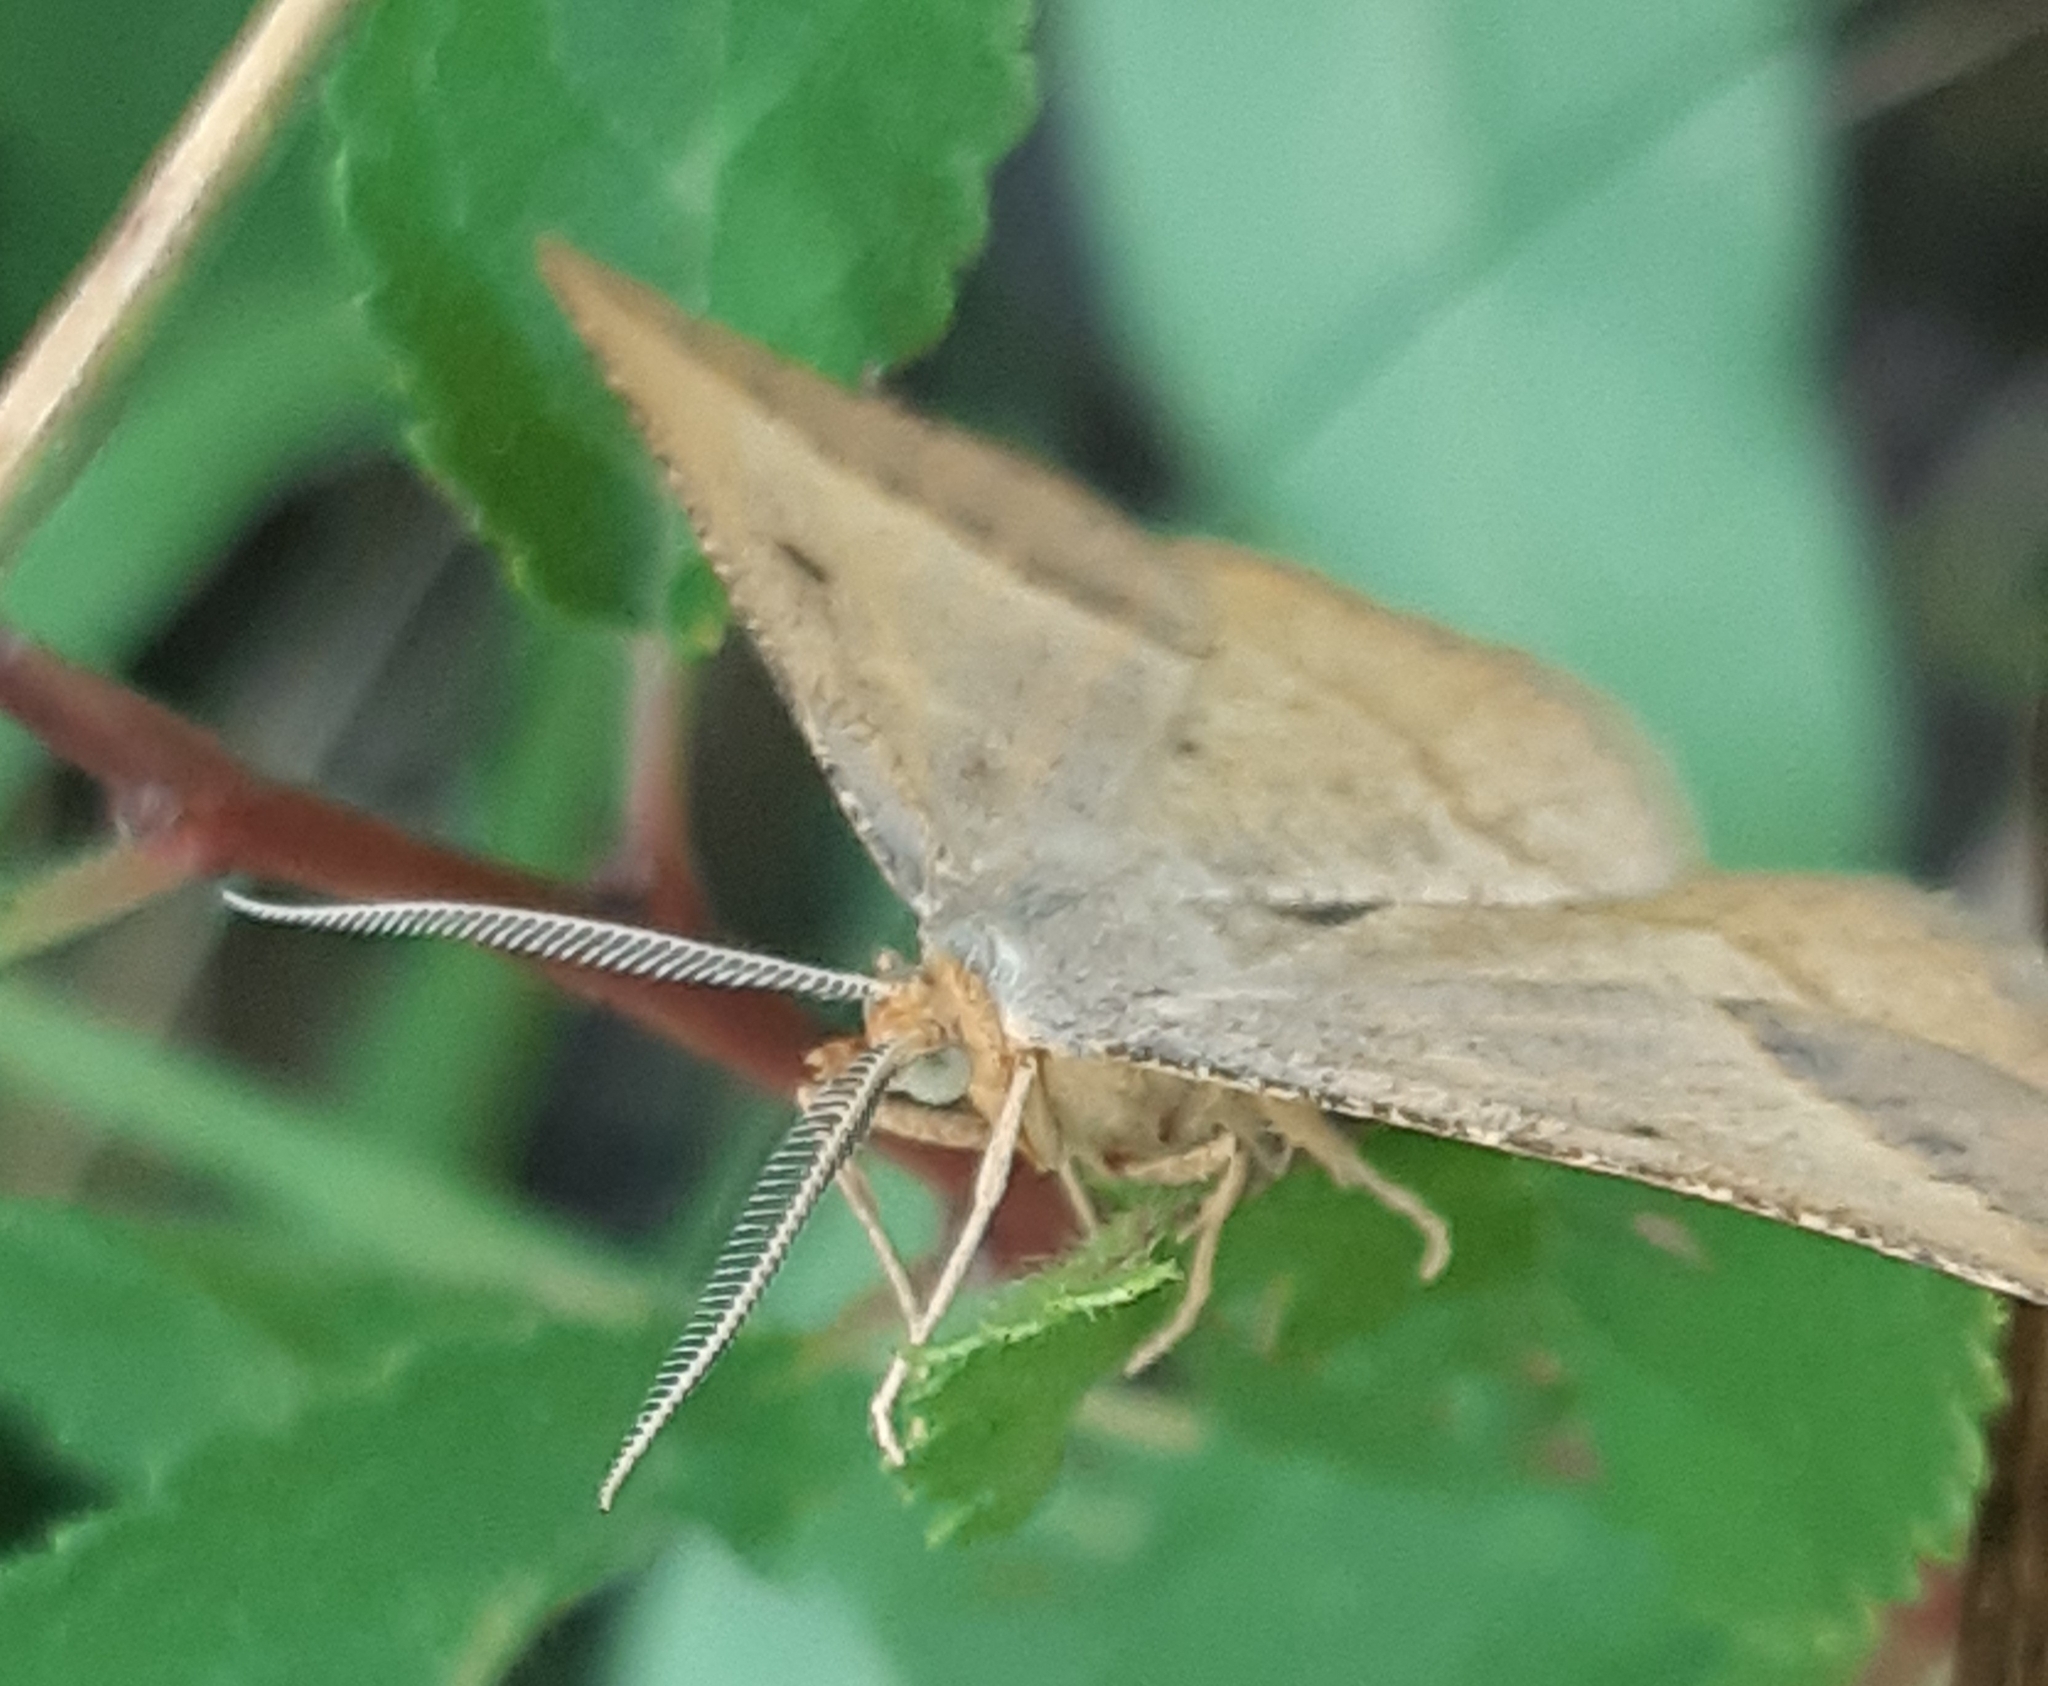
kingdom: Animalia
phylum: Arthropoda
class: Insecta
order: Lepidoptera
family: Geometridae
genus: Tephrina
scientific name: Tephrina arenacearia
